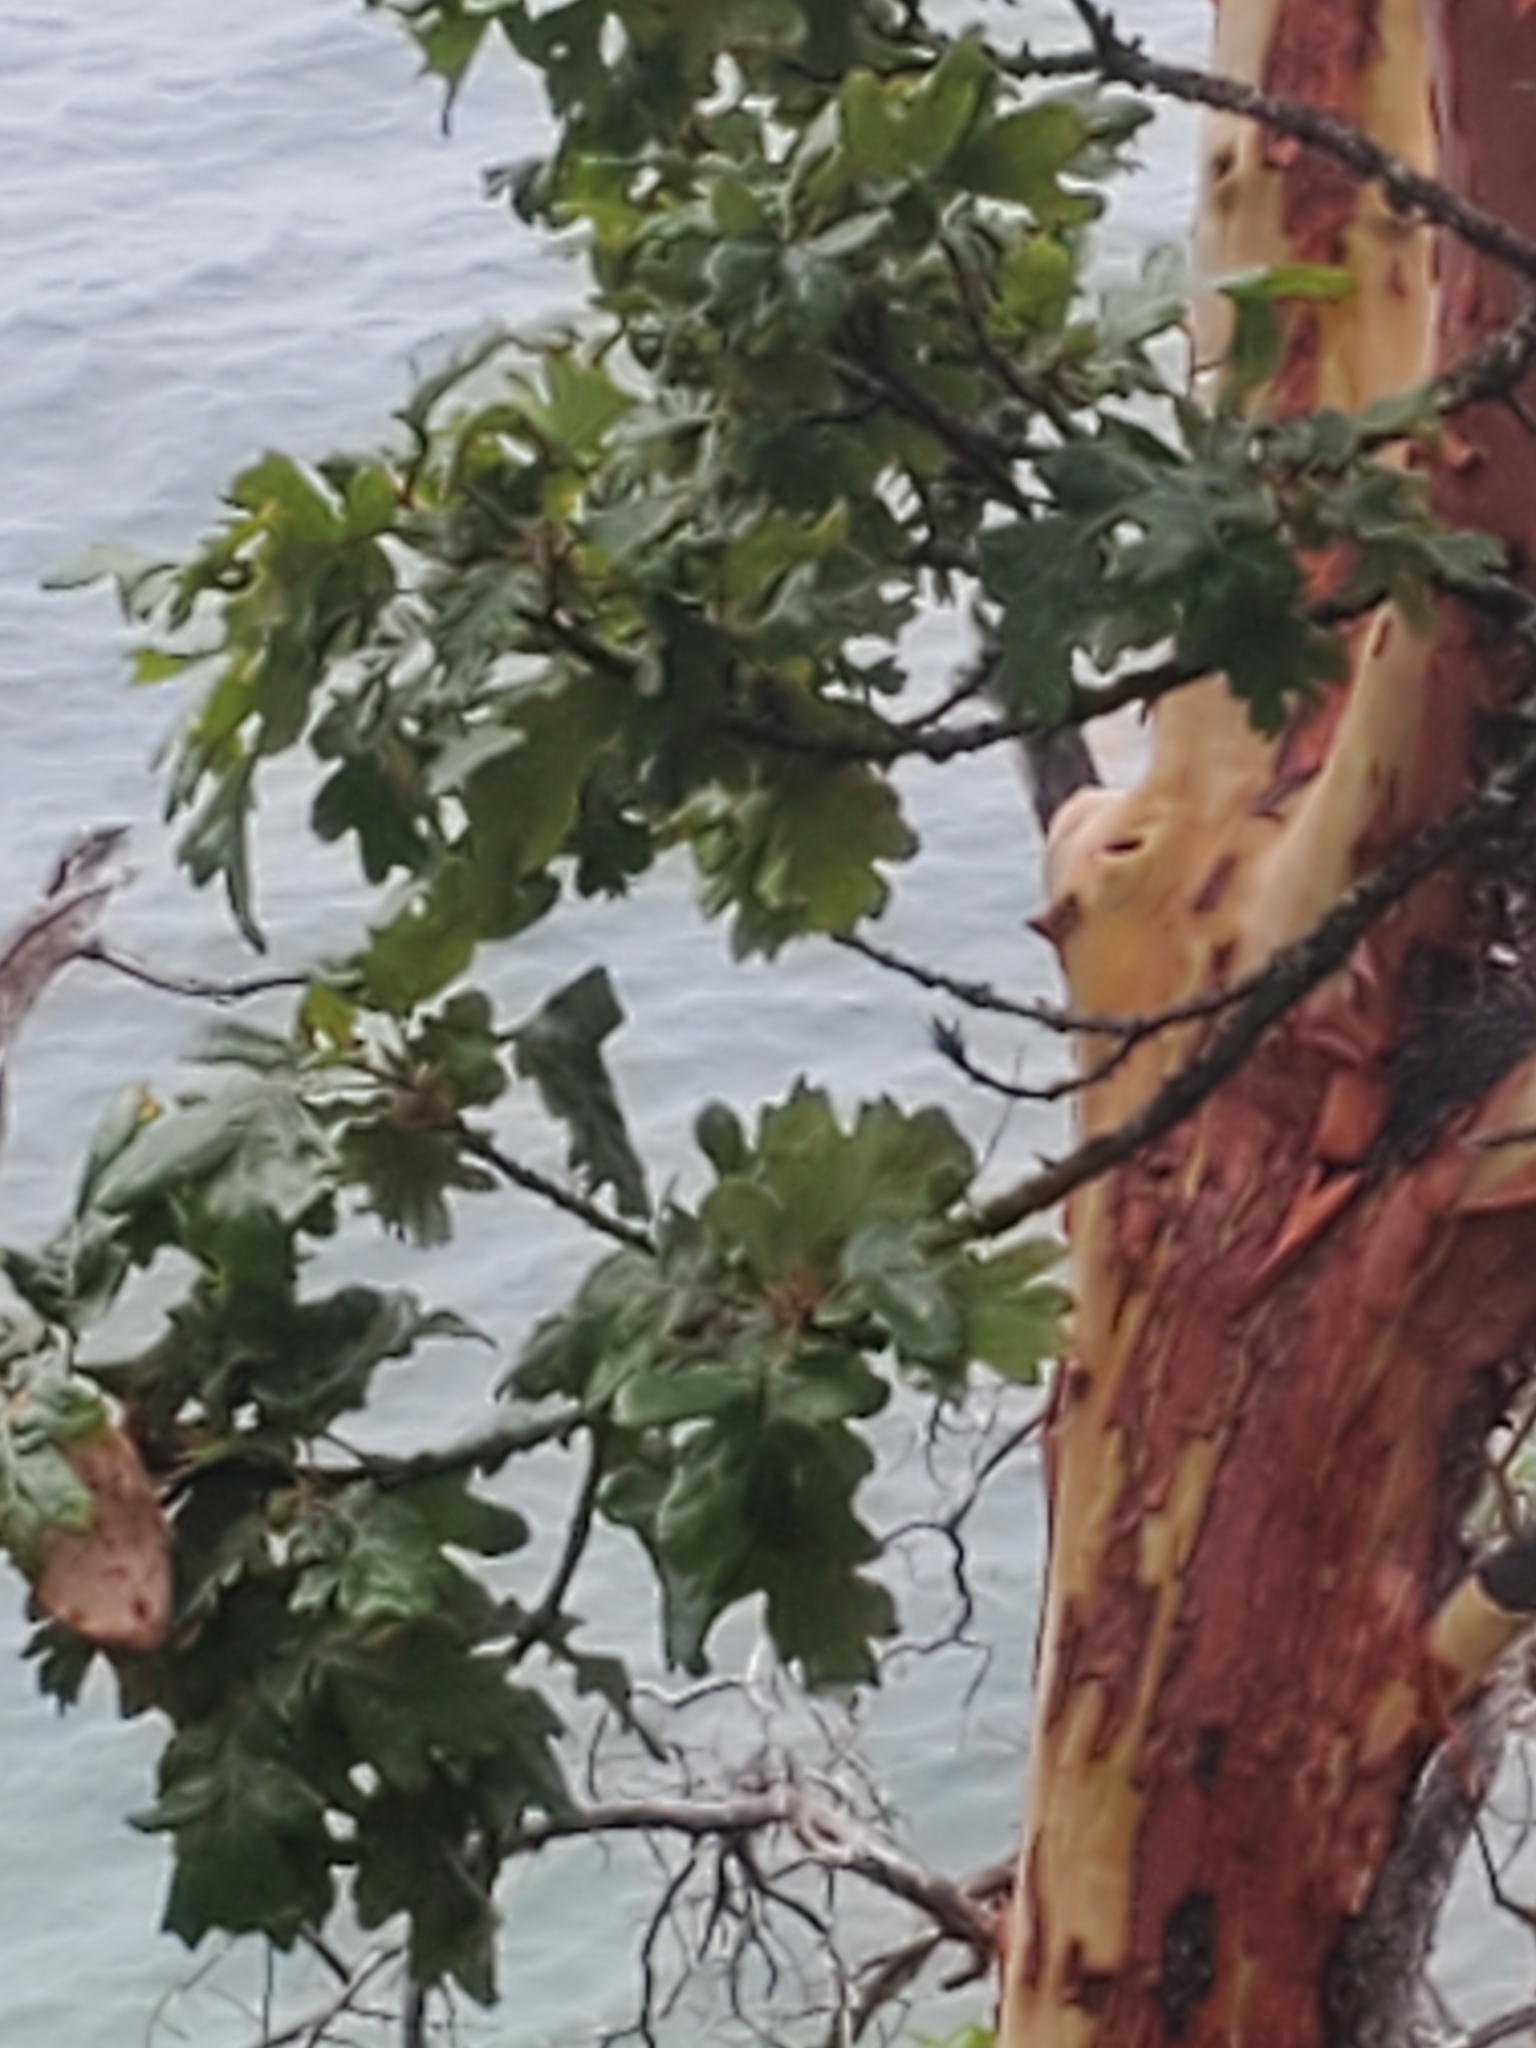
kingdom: Plantae
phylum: Tracheophyta
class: Magnoliopsida
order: Fagales
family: Fagaceae
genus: Quercus
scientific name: Quercus garryana
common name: Garry oak
